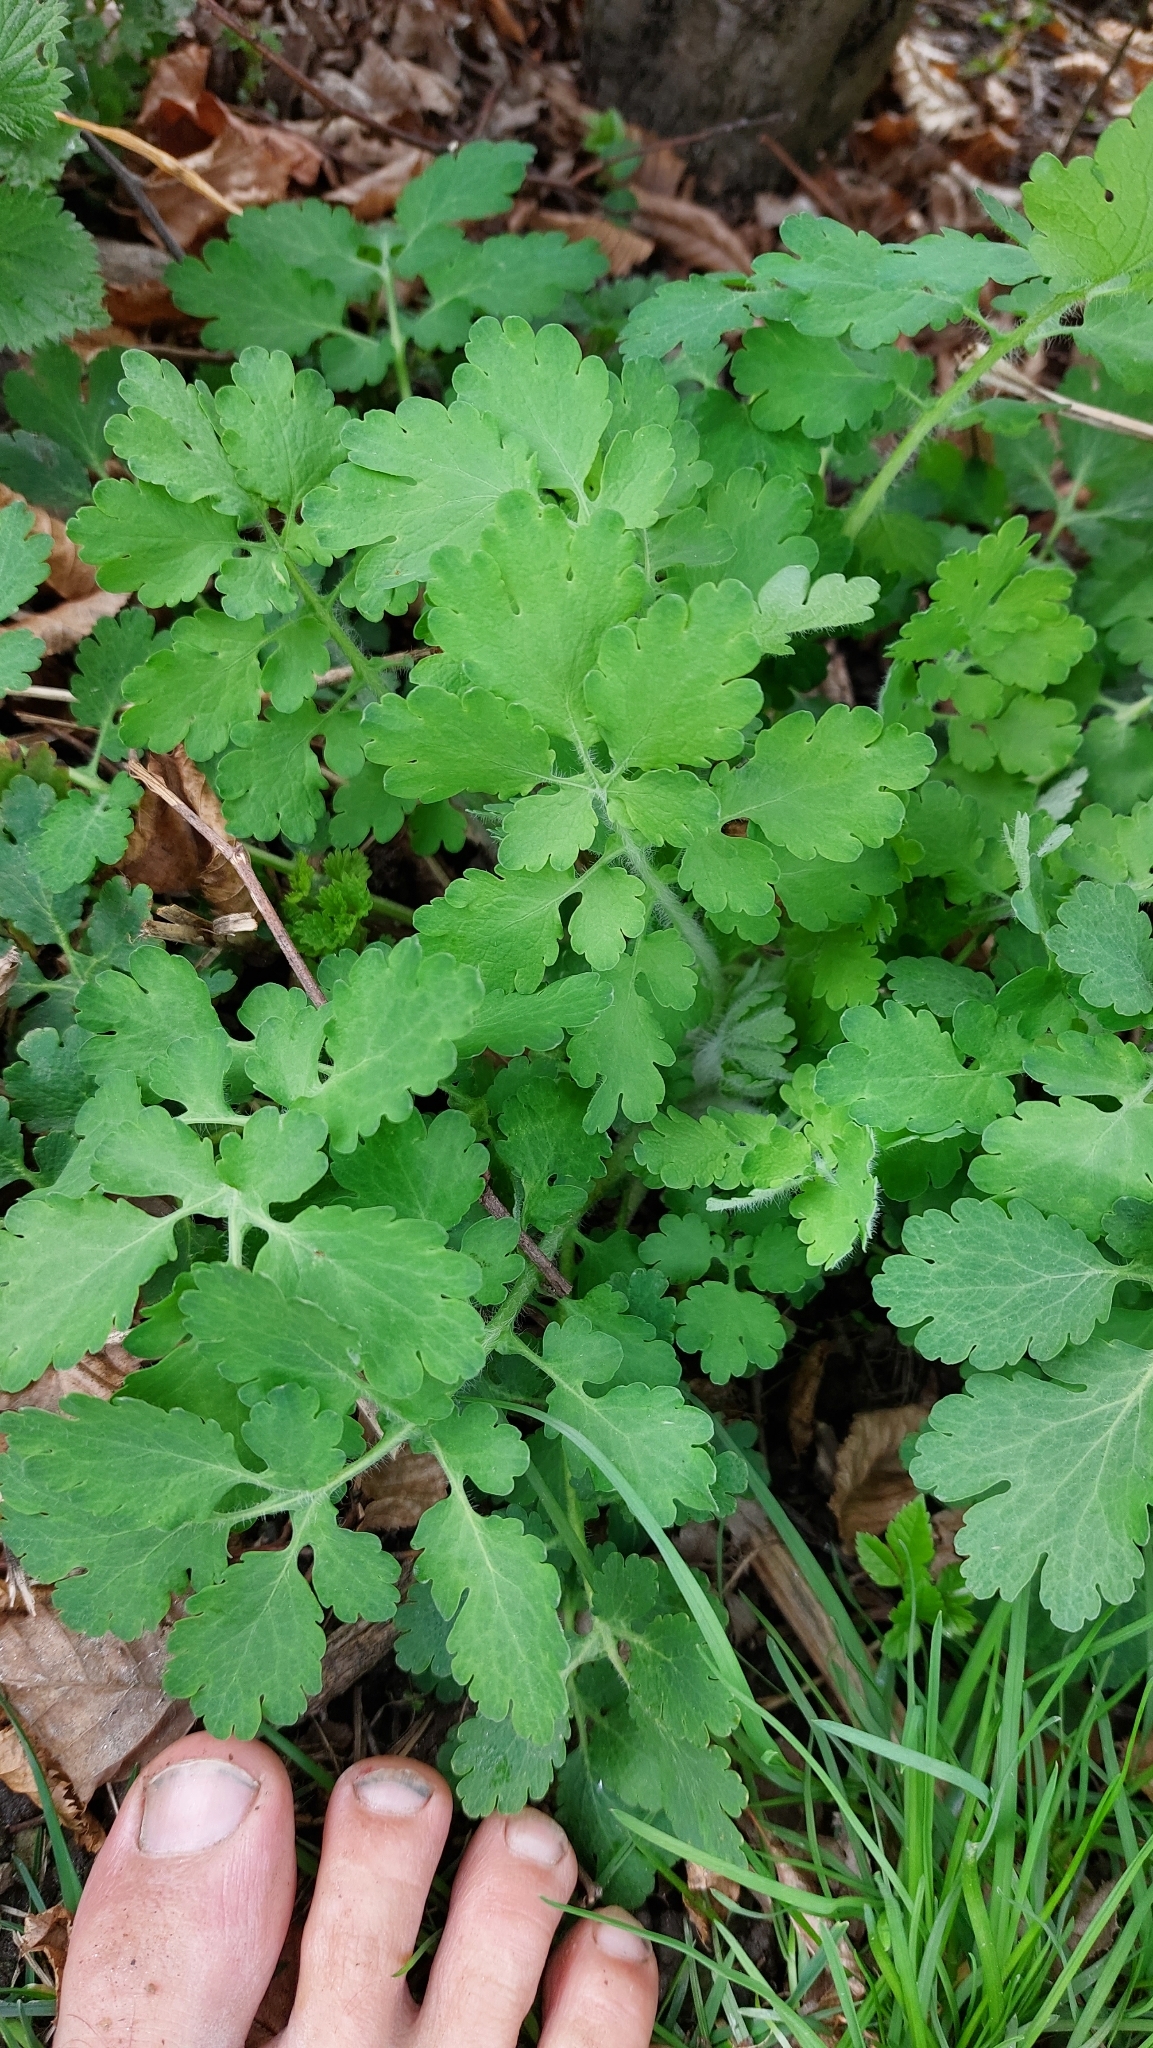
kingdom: Plantae
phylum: Tracheophyta
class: Magnoliopsida
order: Ranunculales
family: Papaveraceae
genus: Chelidonium
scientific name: Chelidonium majus
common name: Greater celandine
